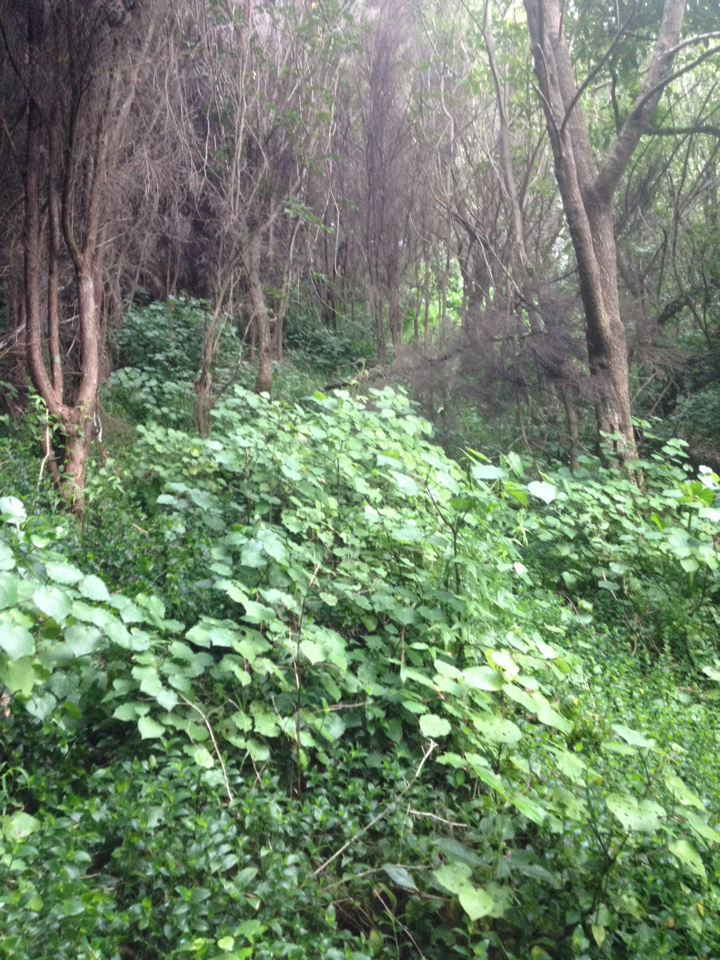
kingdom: Plantae
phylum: Tracheophyta
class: Magnoliopsida
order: Piperales
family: Piperaceae
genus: Macropiper
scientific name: Macropiper excelsum
